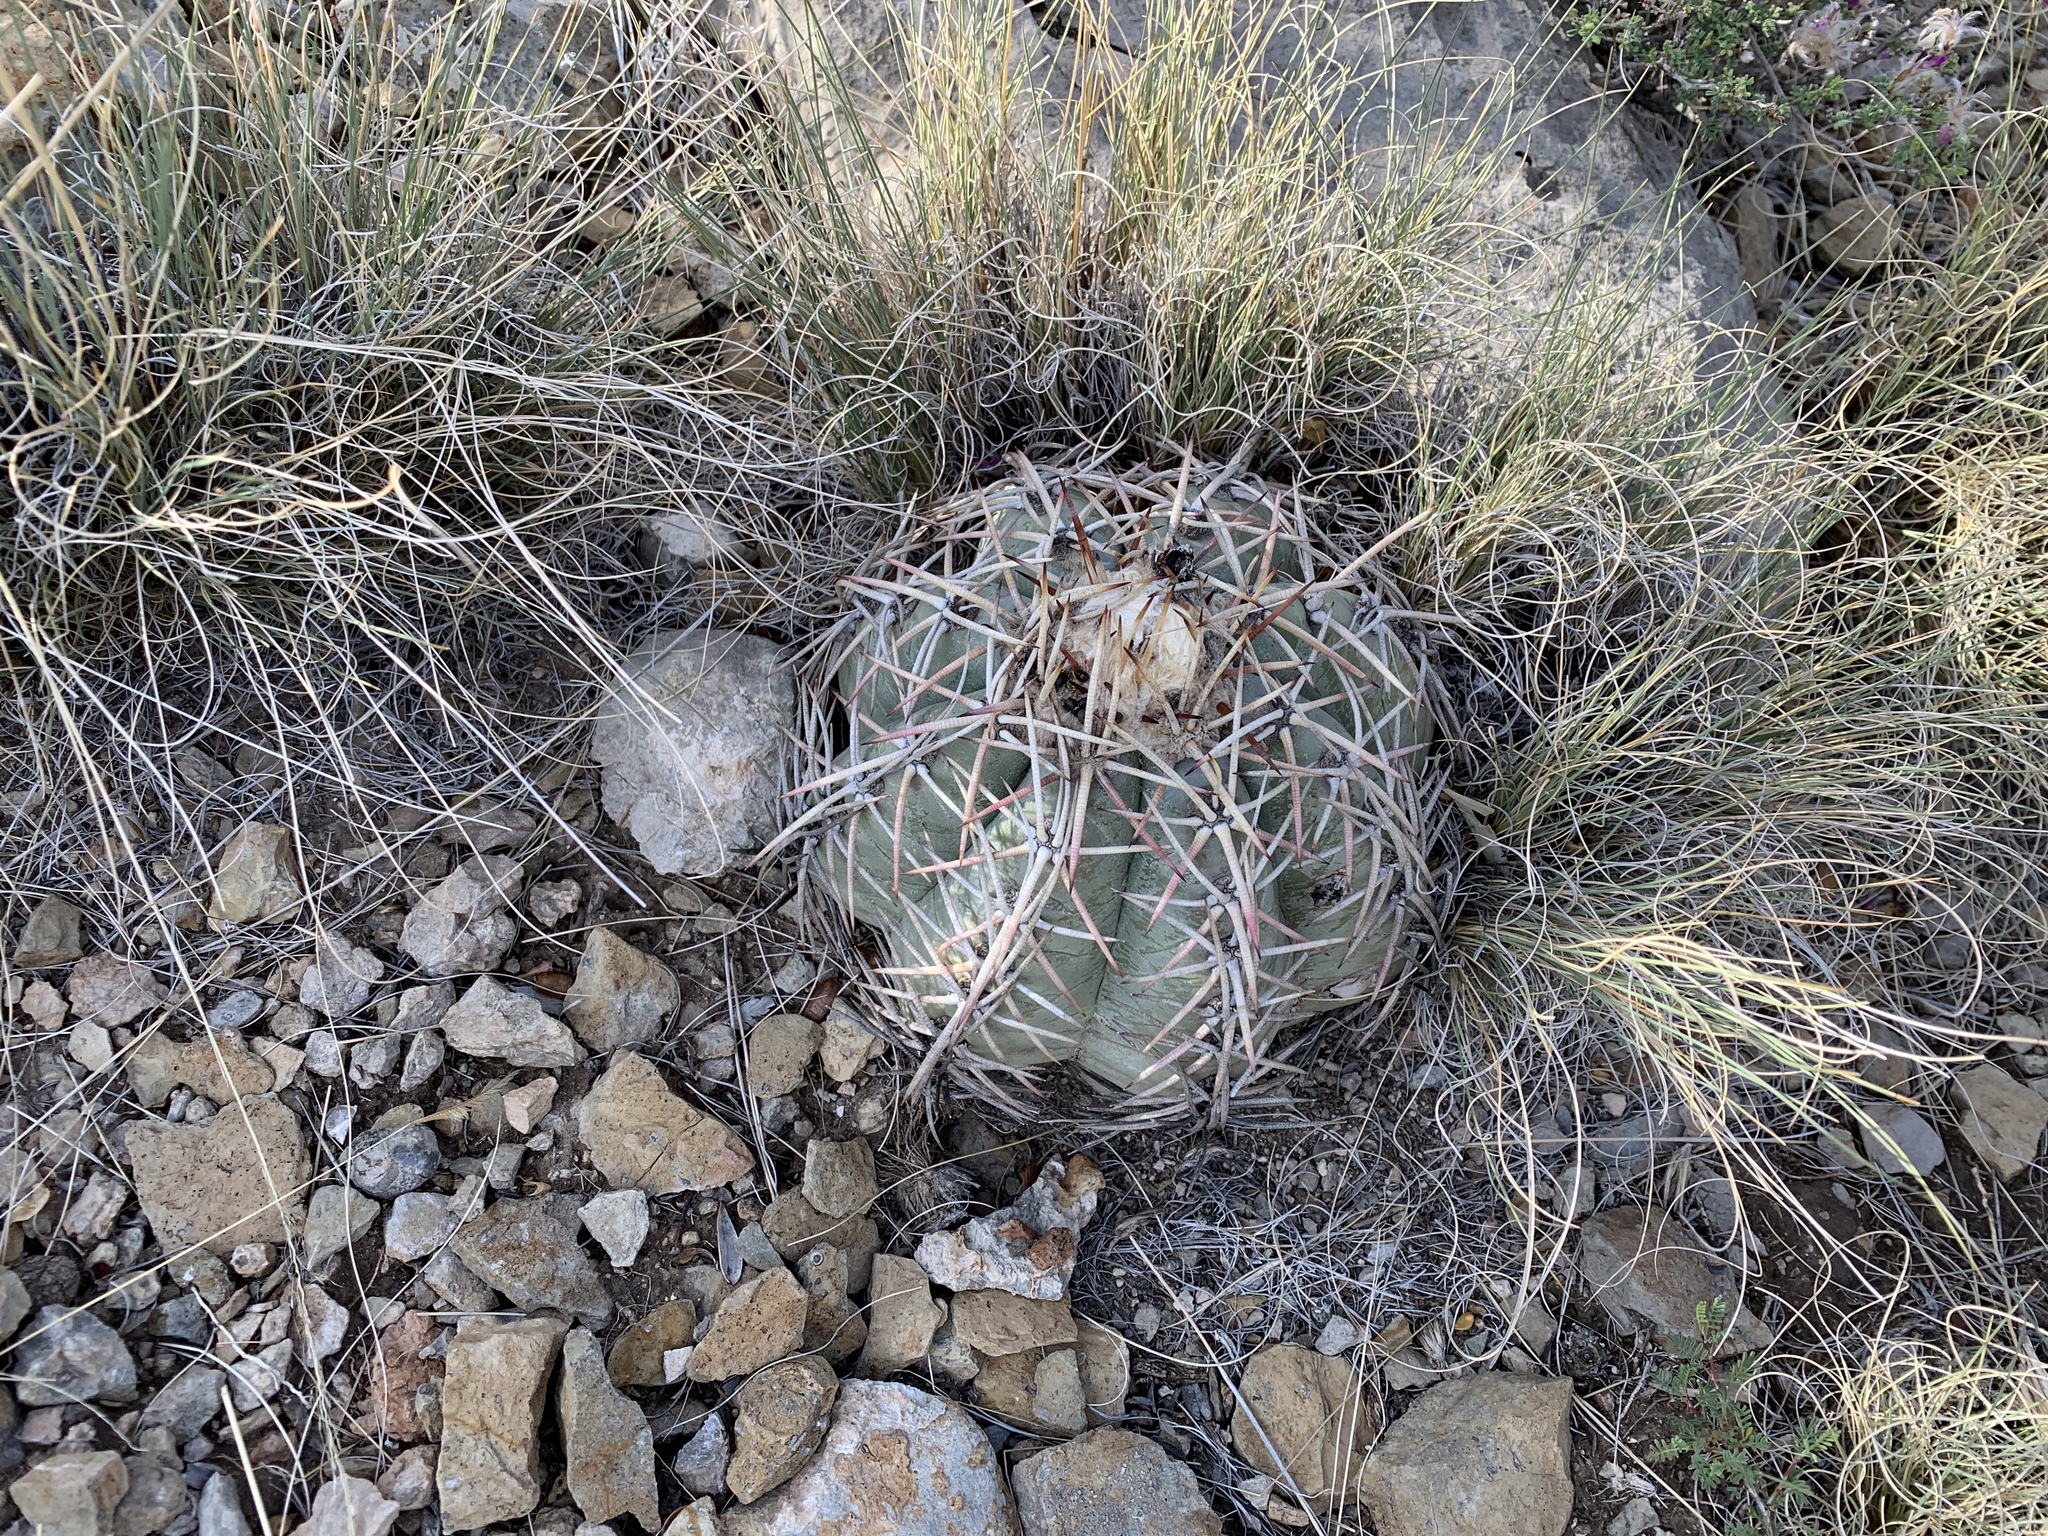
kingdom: Plantae
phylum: Tracheophyta
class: Magnoliopsida
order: Caryophyllales
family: Cactaceae
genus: Echinocactus
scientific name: Echinocactus horizonthalonius
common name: Devilshead
